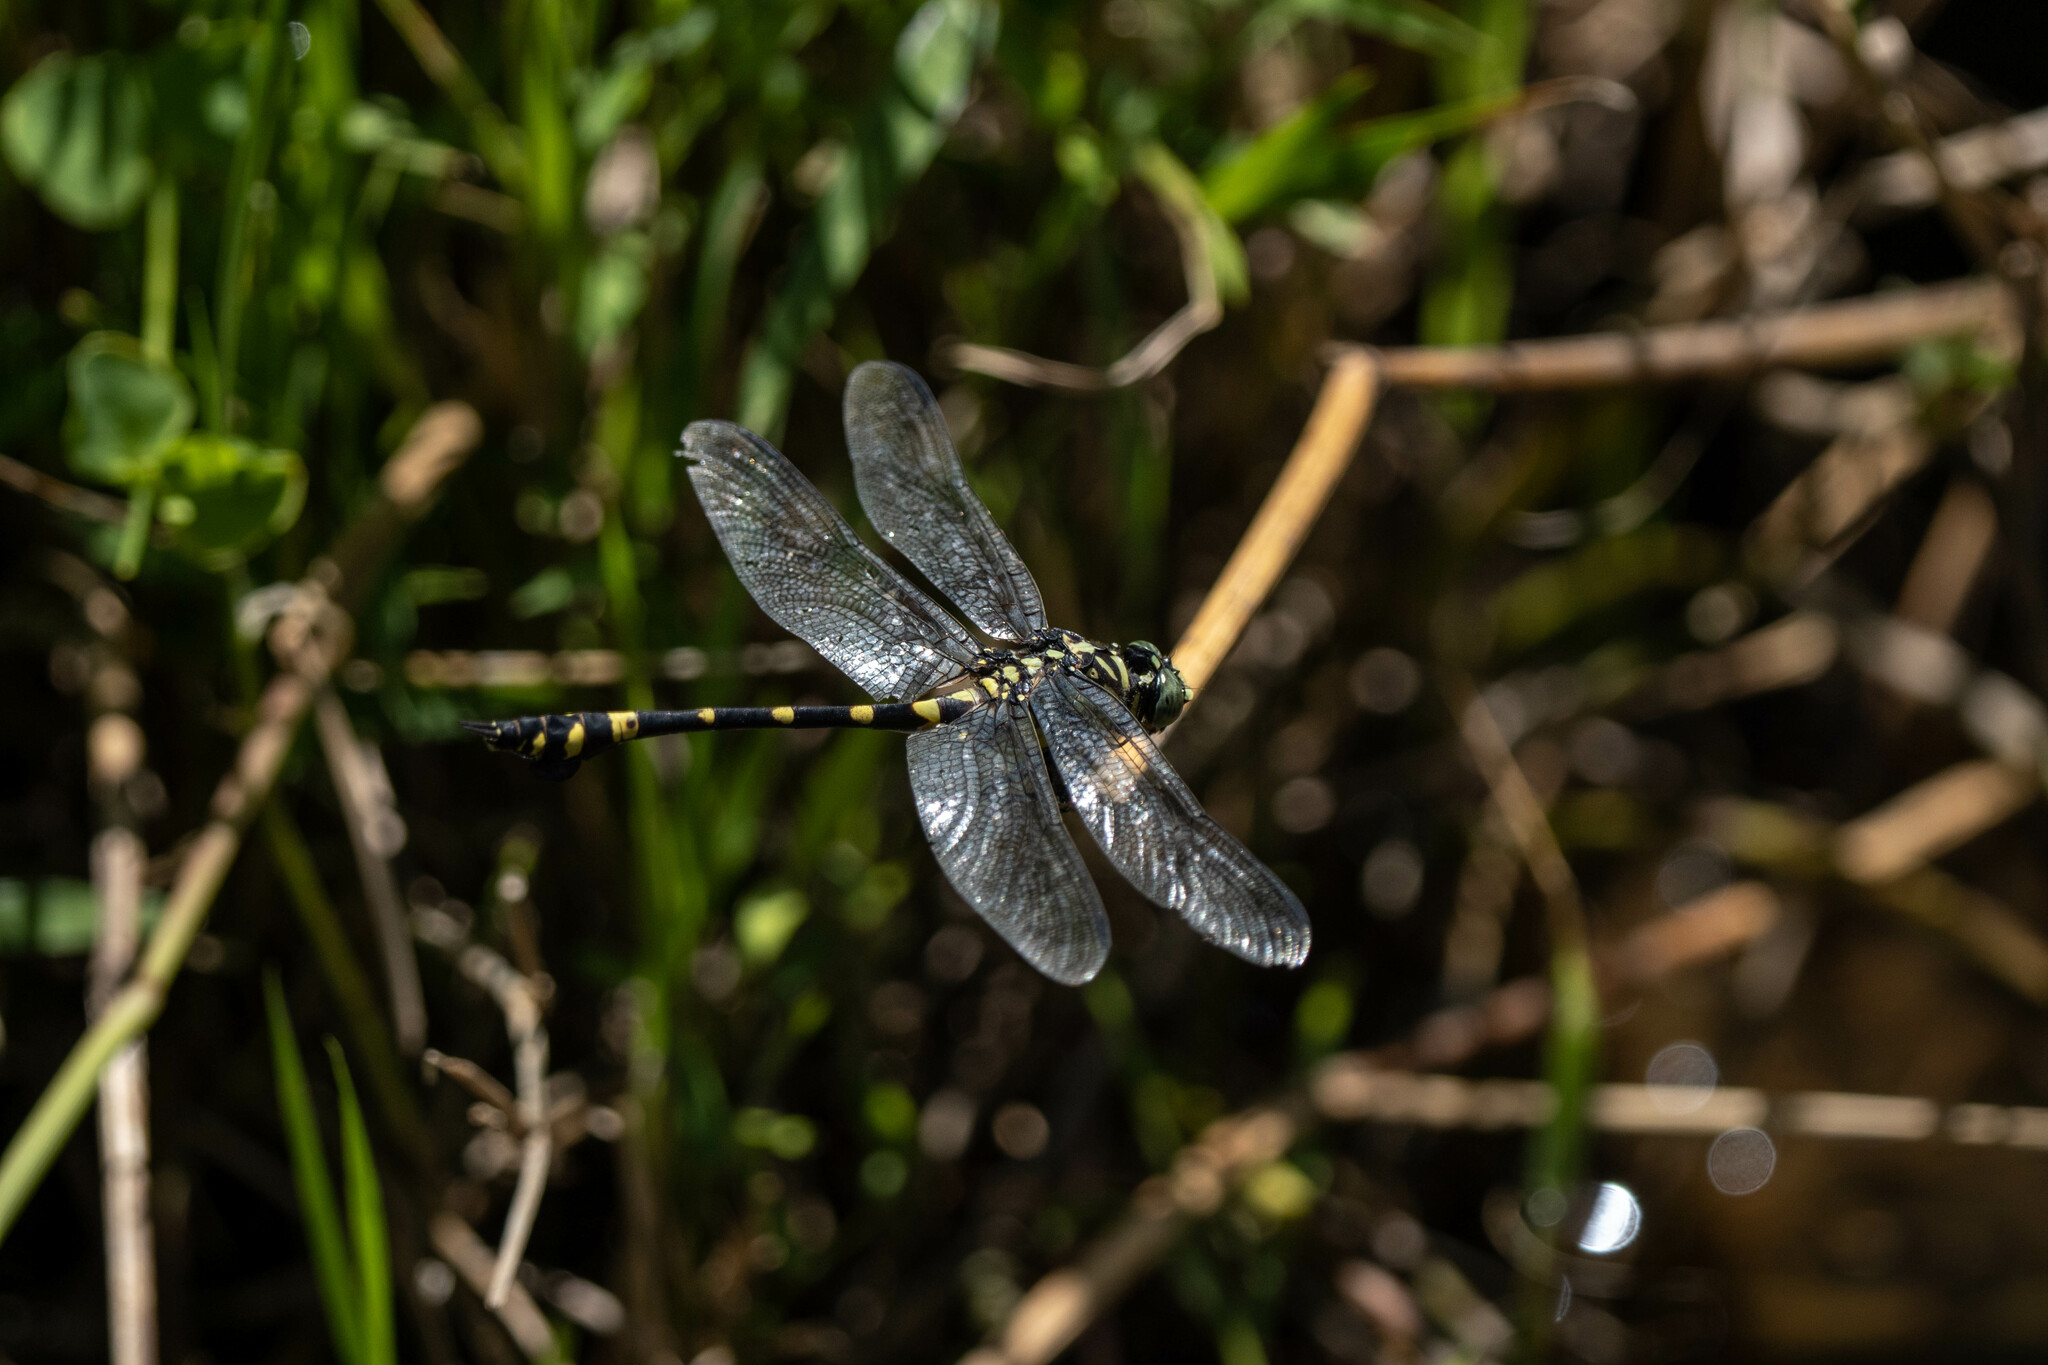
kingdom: Animalia
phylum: Arthropoda
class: Insecta
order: Odonata
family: Gomphidae
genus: Ictinogomphus
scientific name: Ictinogomphus rapax
